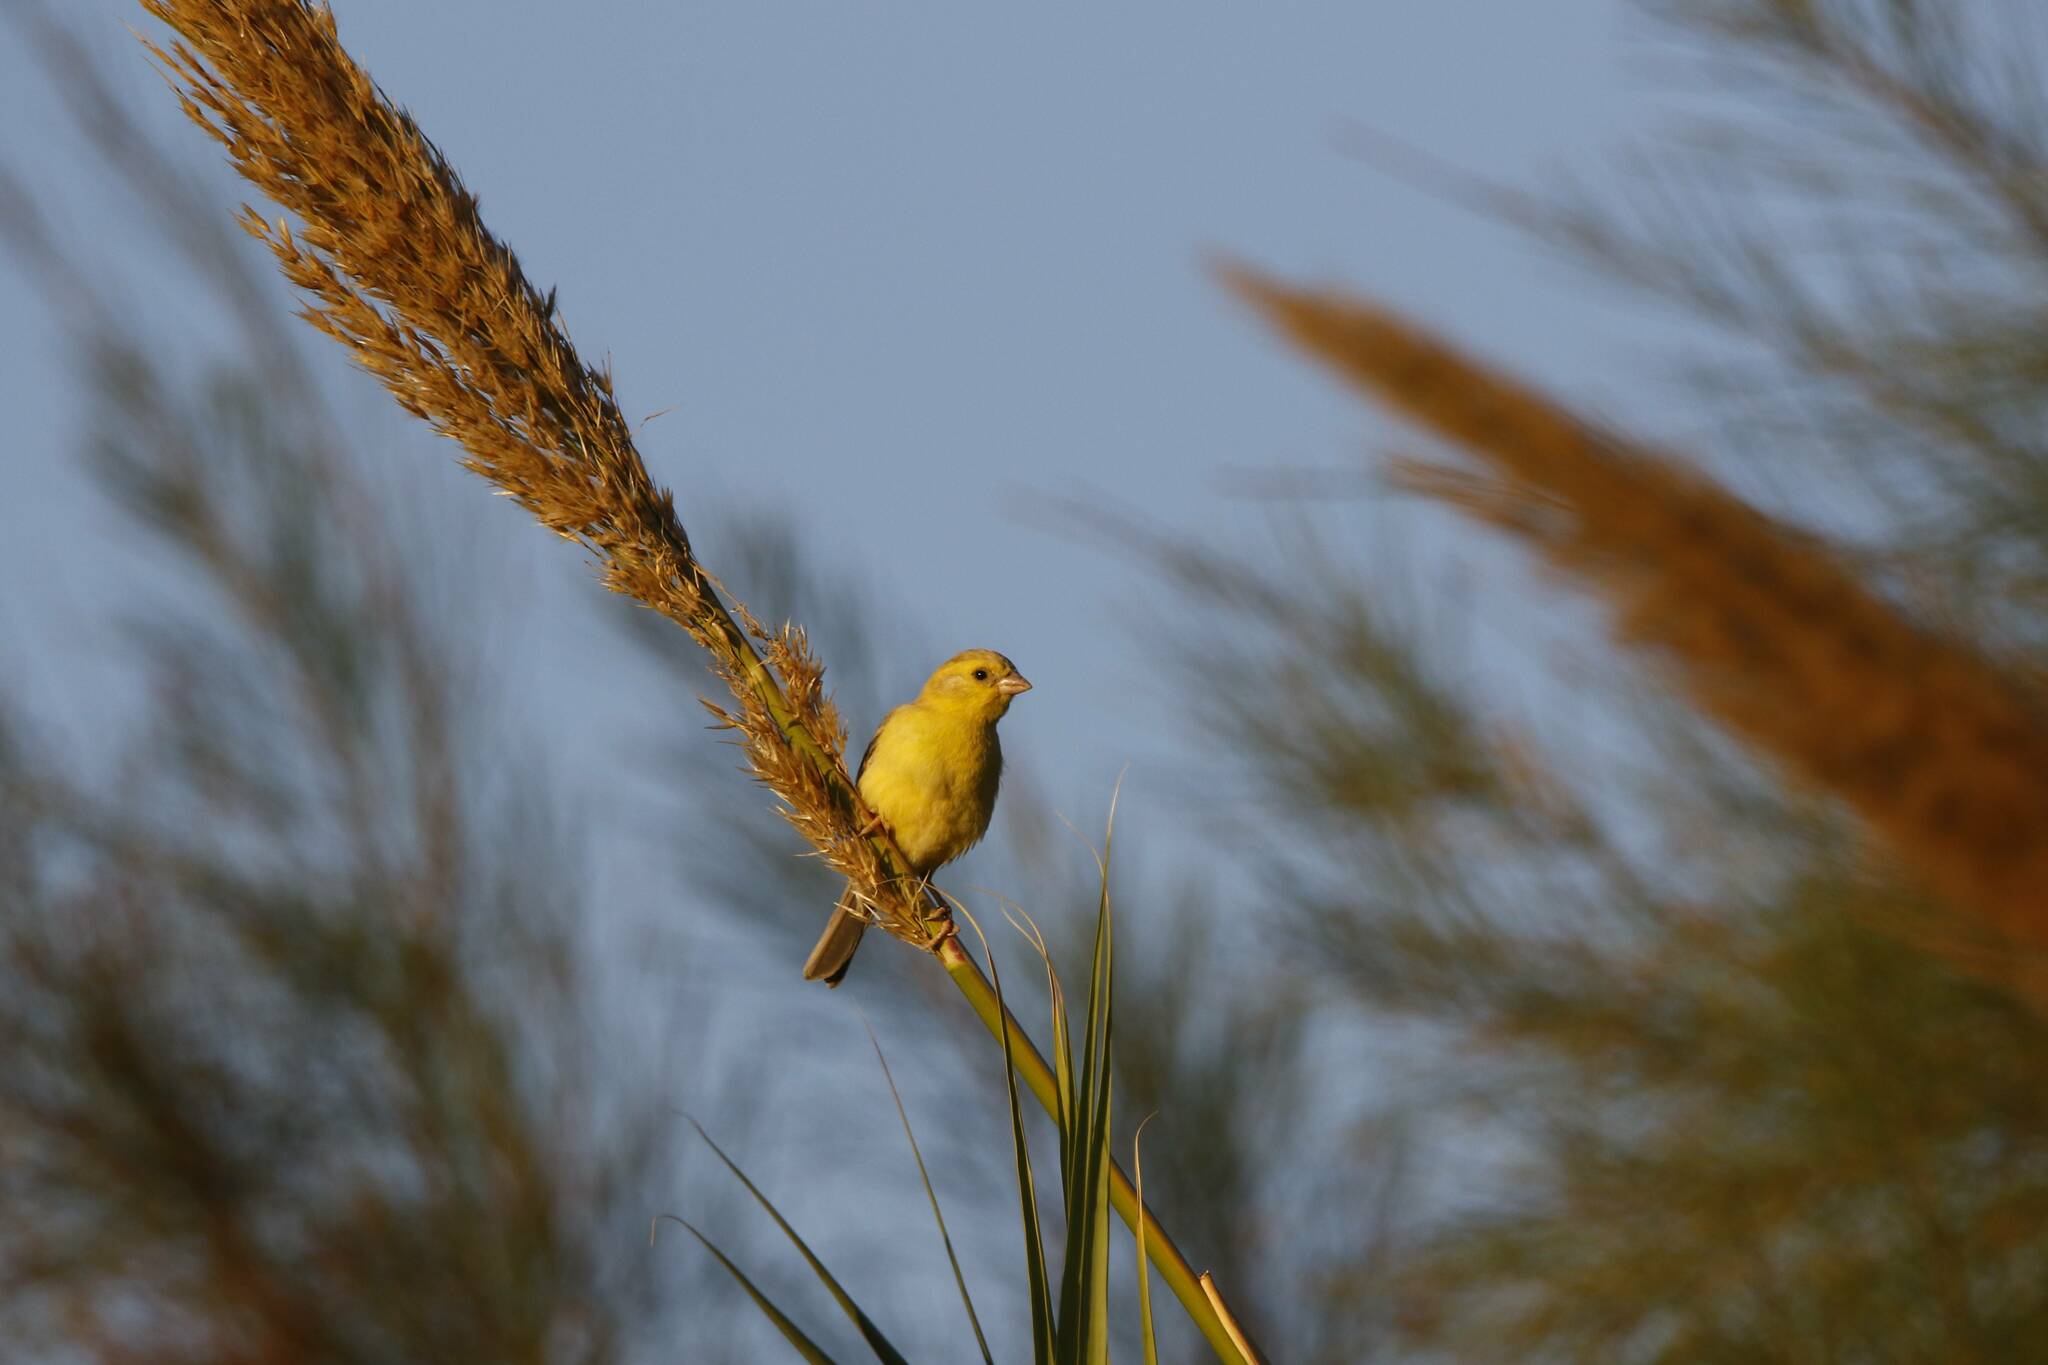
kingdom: Animalia
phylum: Chordata
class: Aves
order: Passeriformes
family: Passeridae
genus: Passer
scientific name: Passer luteus
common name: Sudan golden sparrow
